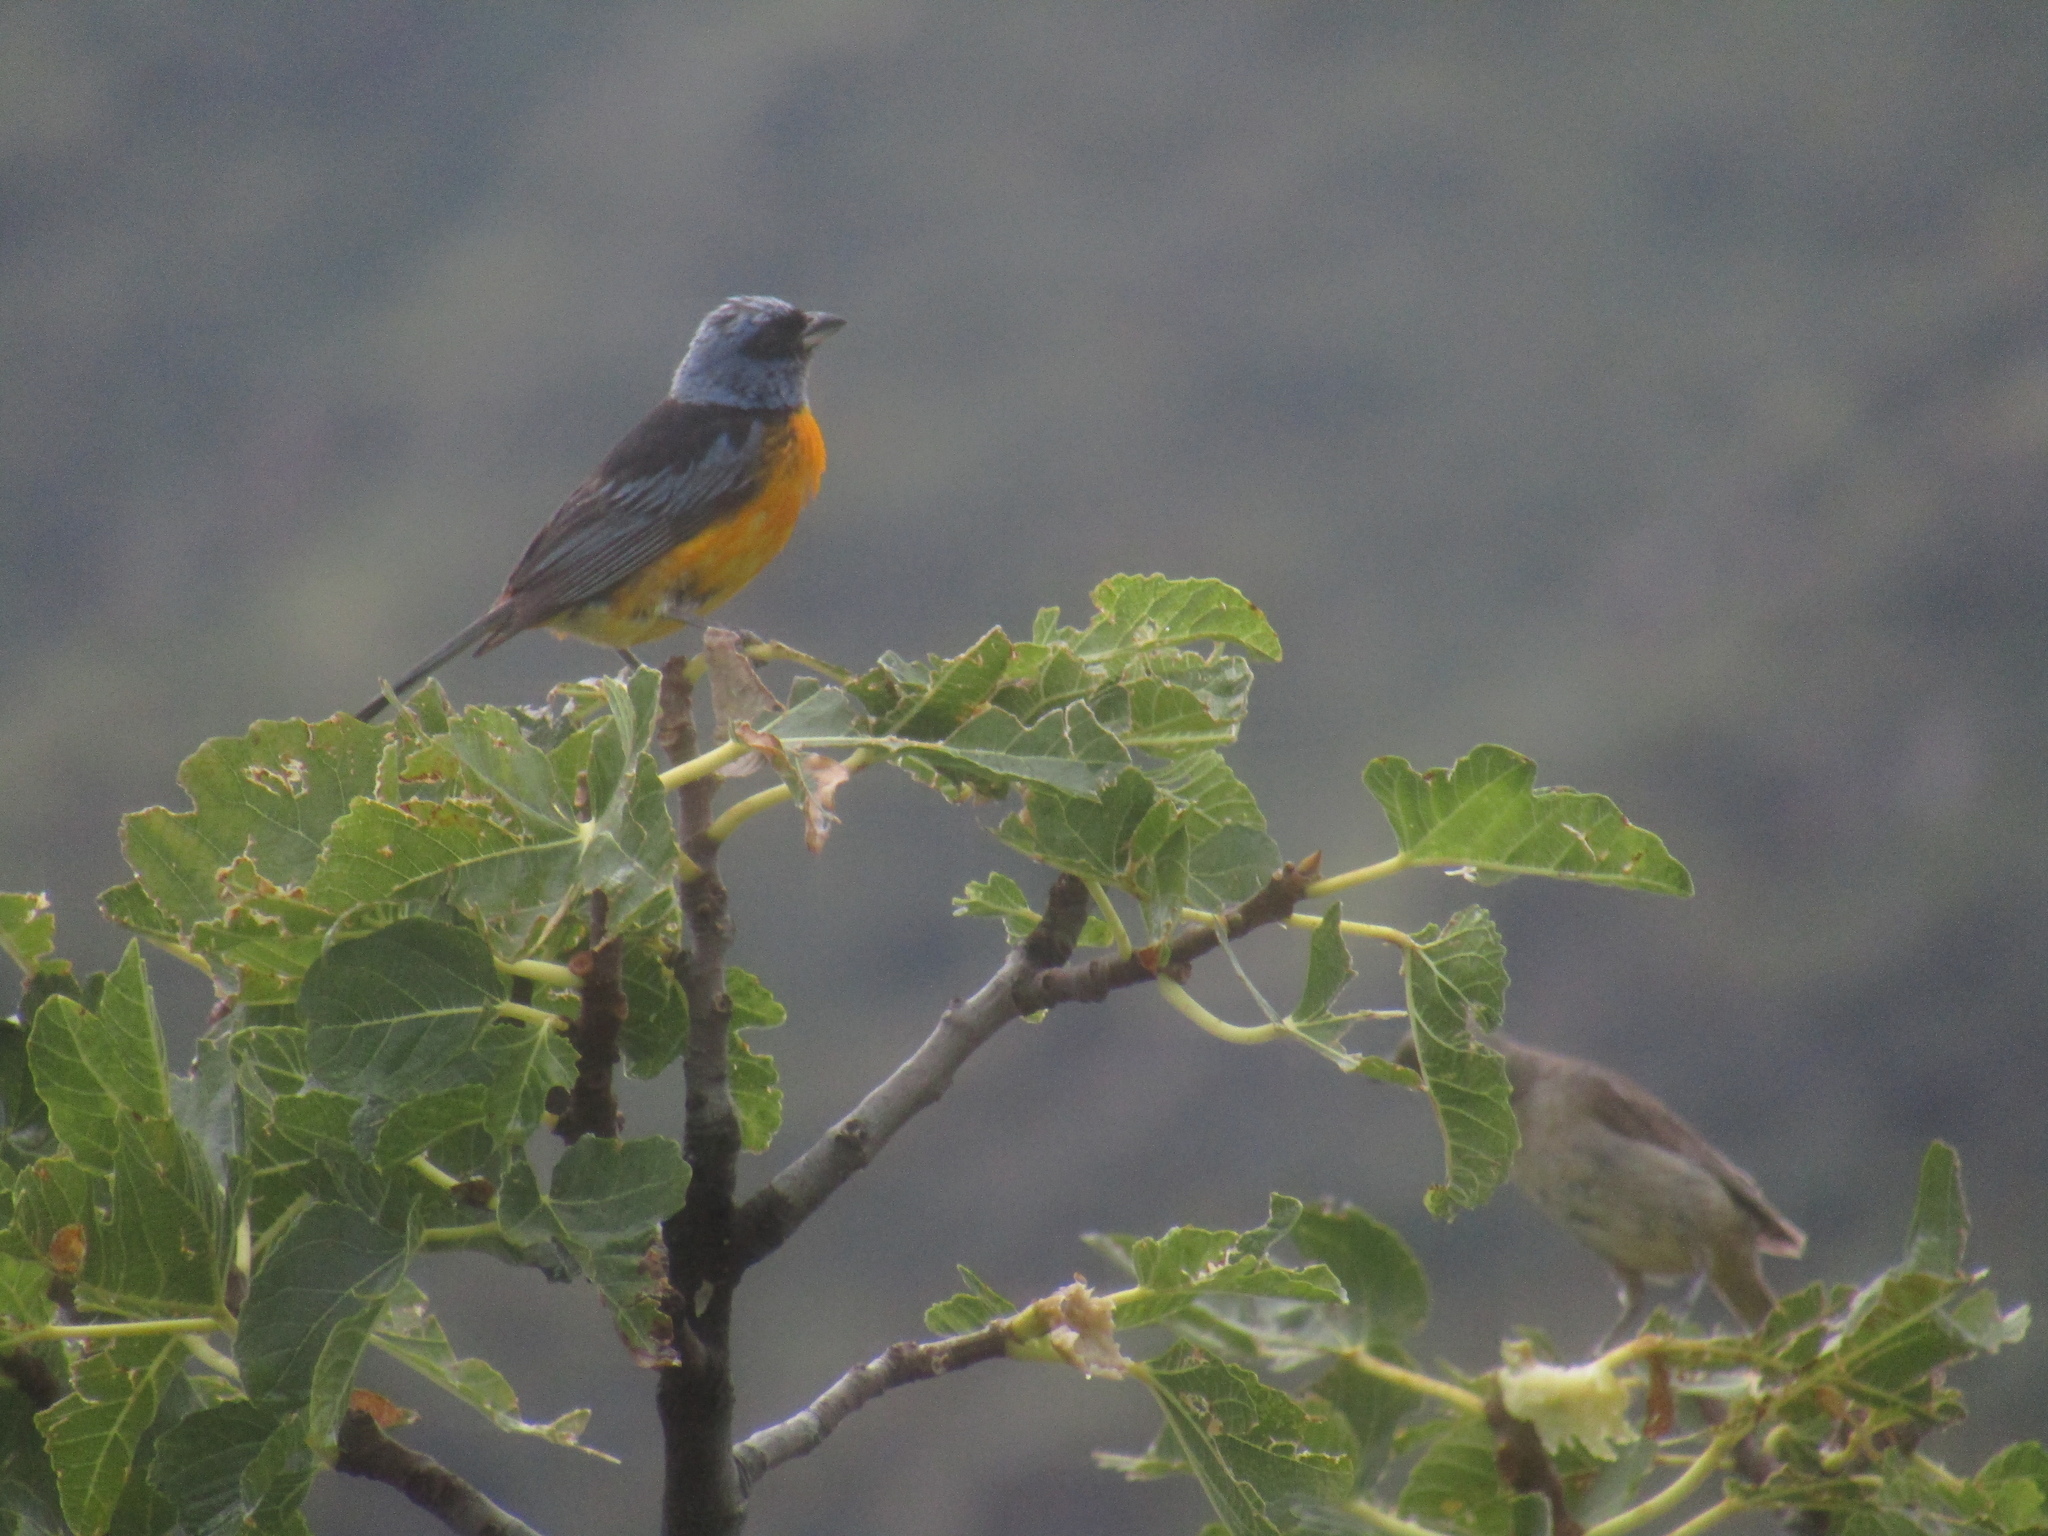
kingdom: Animalia
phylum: Chordata
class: Aves
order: Passeriformes
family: Thraupidae
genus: Rauenia
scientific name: Rauenia bonariensis
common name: Blue-and-yellow tanager
